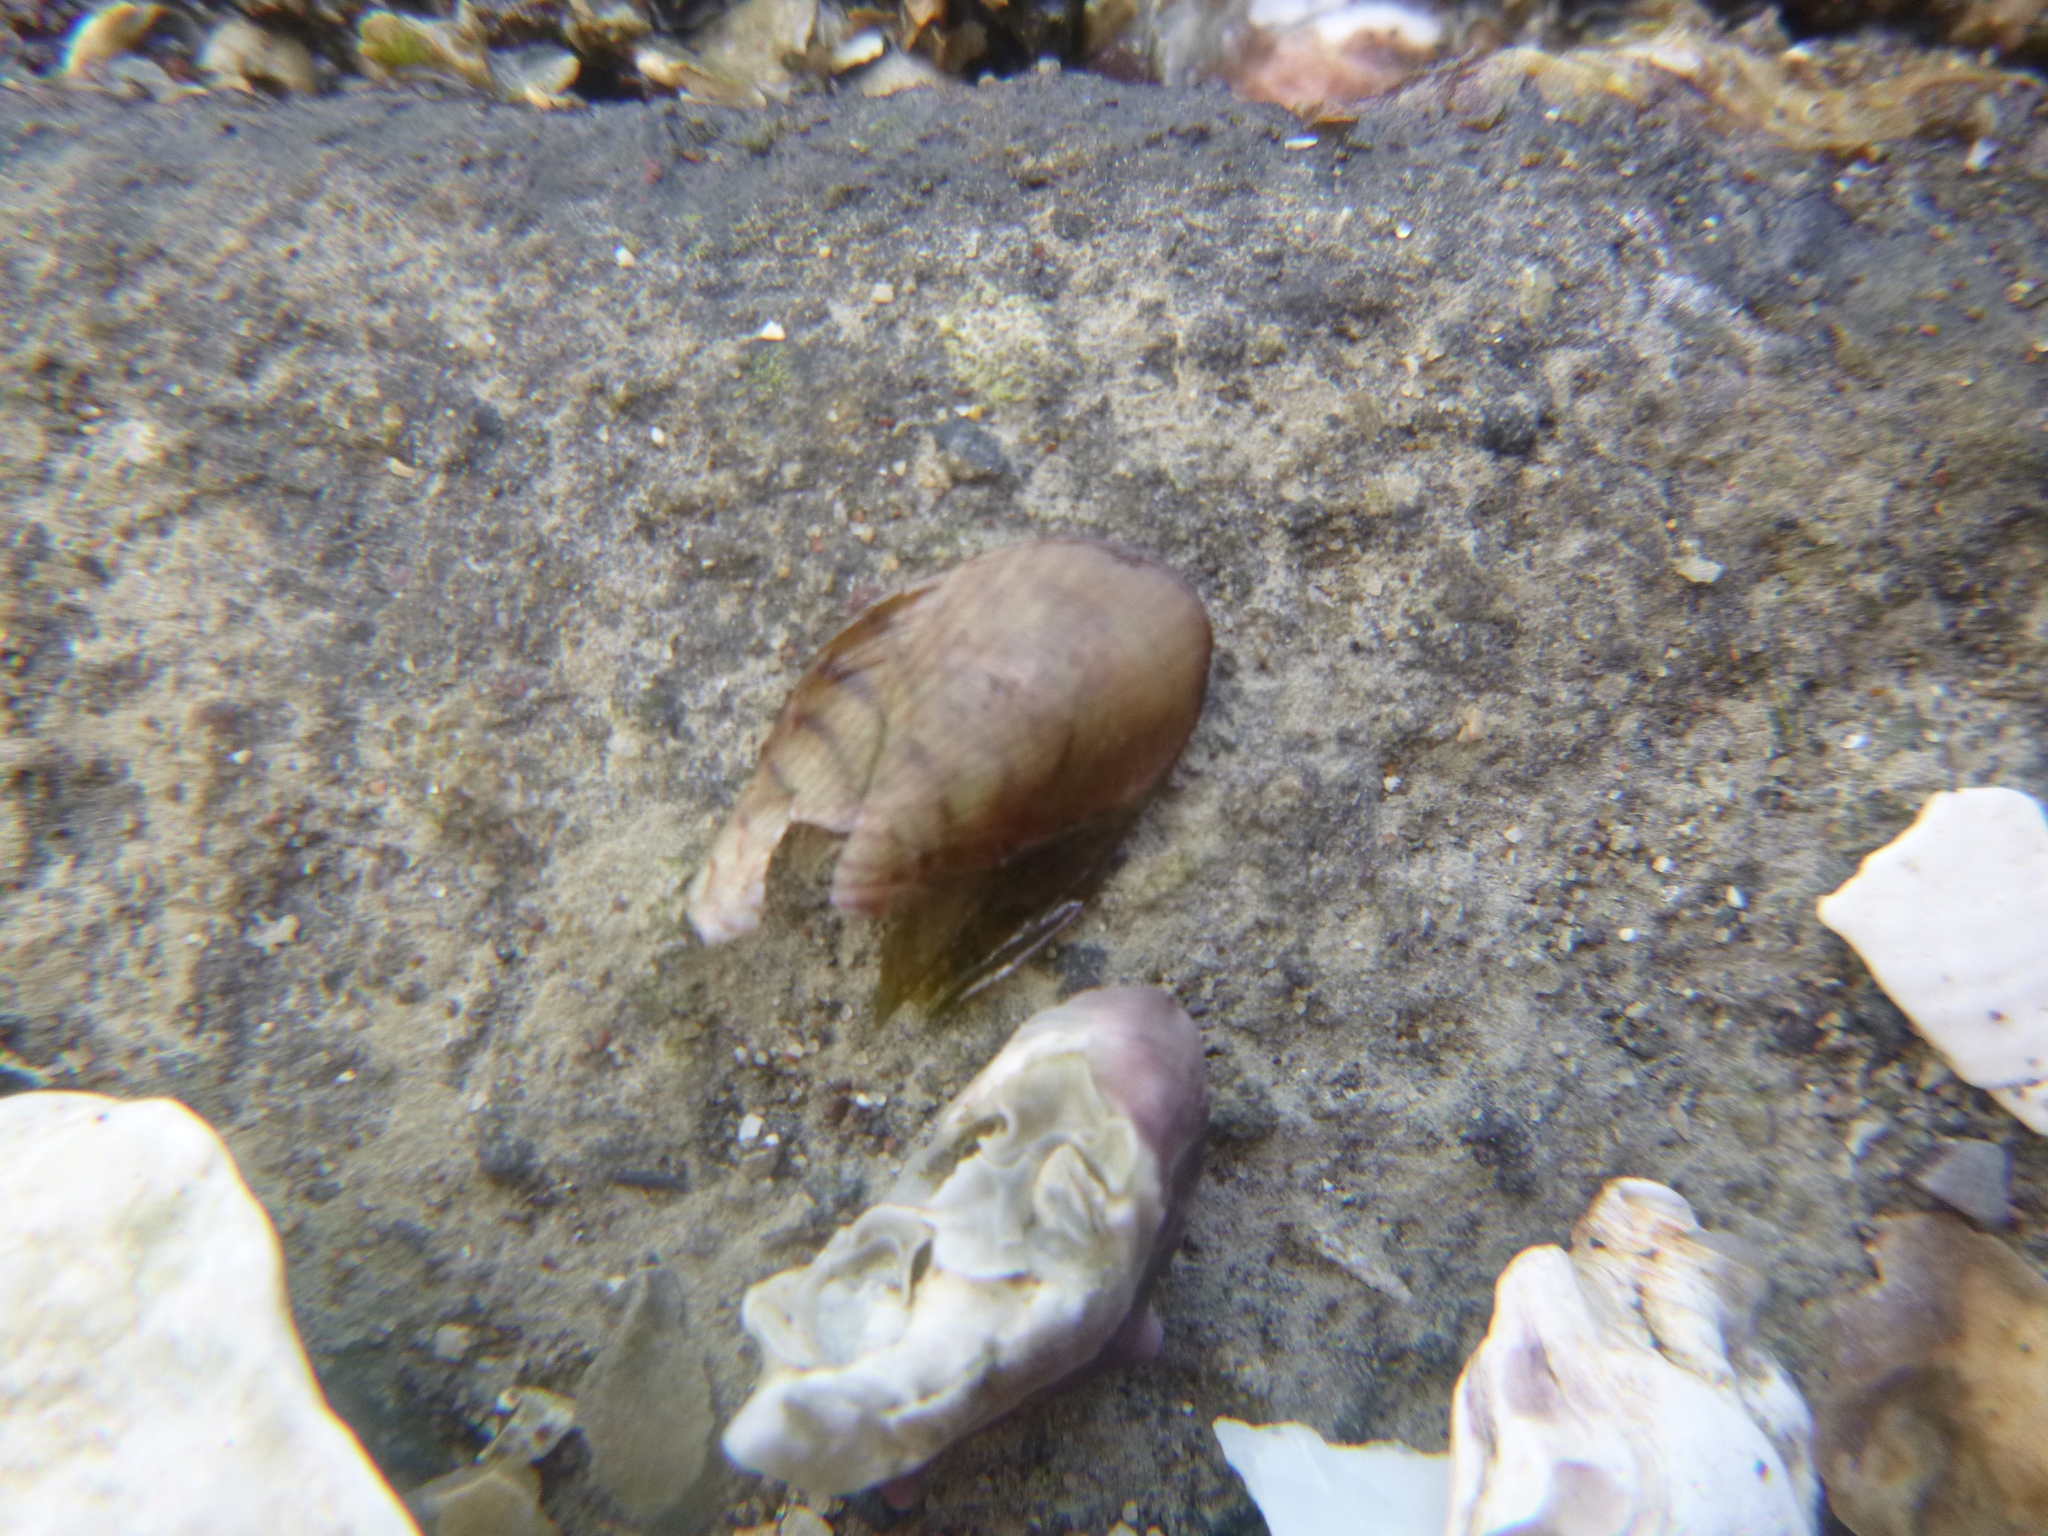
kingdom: Animalia
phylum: Mollusca
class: Bivalvia
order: Mytilida
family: Mytilidae
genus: Arcuatula
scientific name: Arcuatula senhousia
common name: Asian mussel
